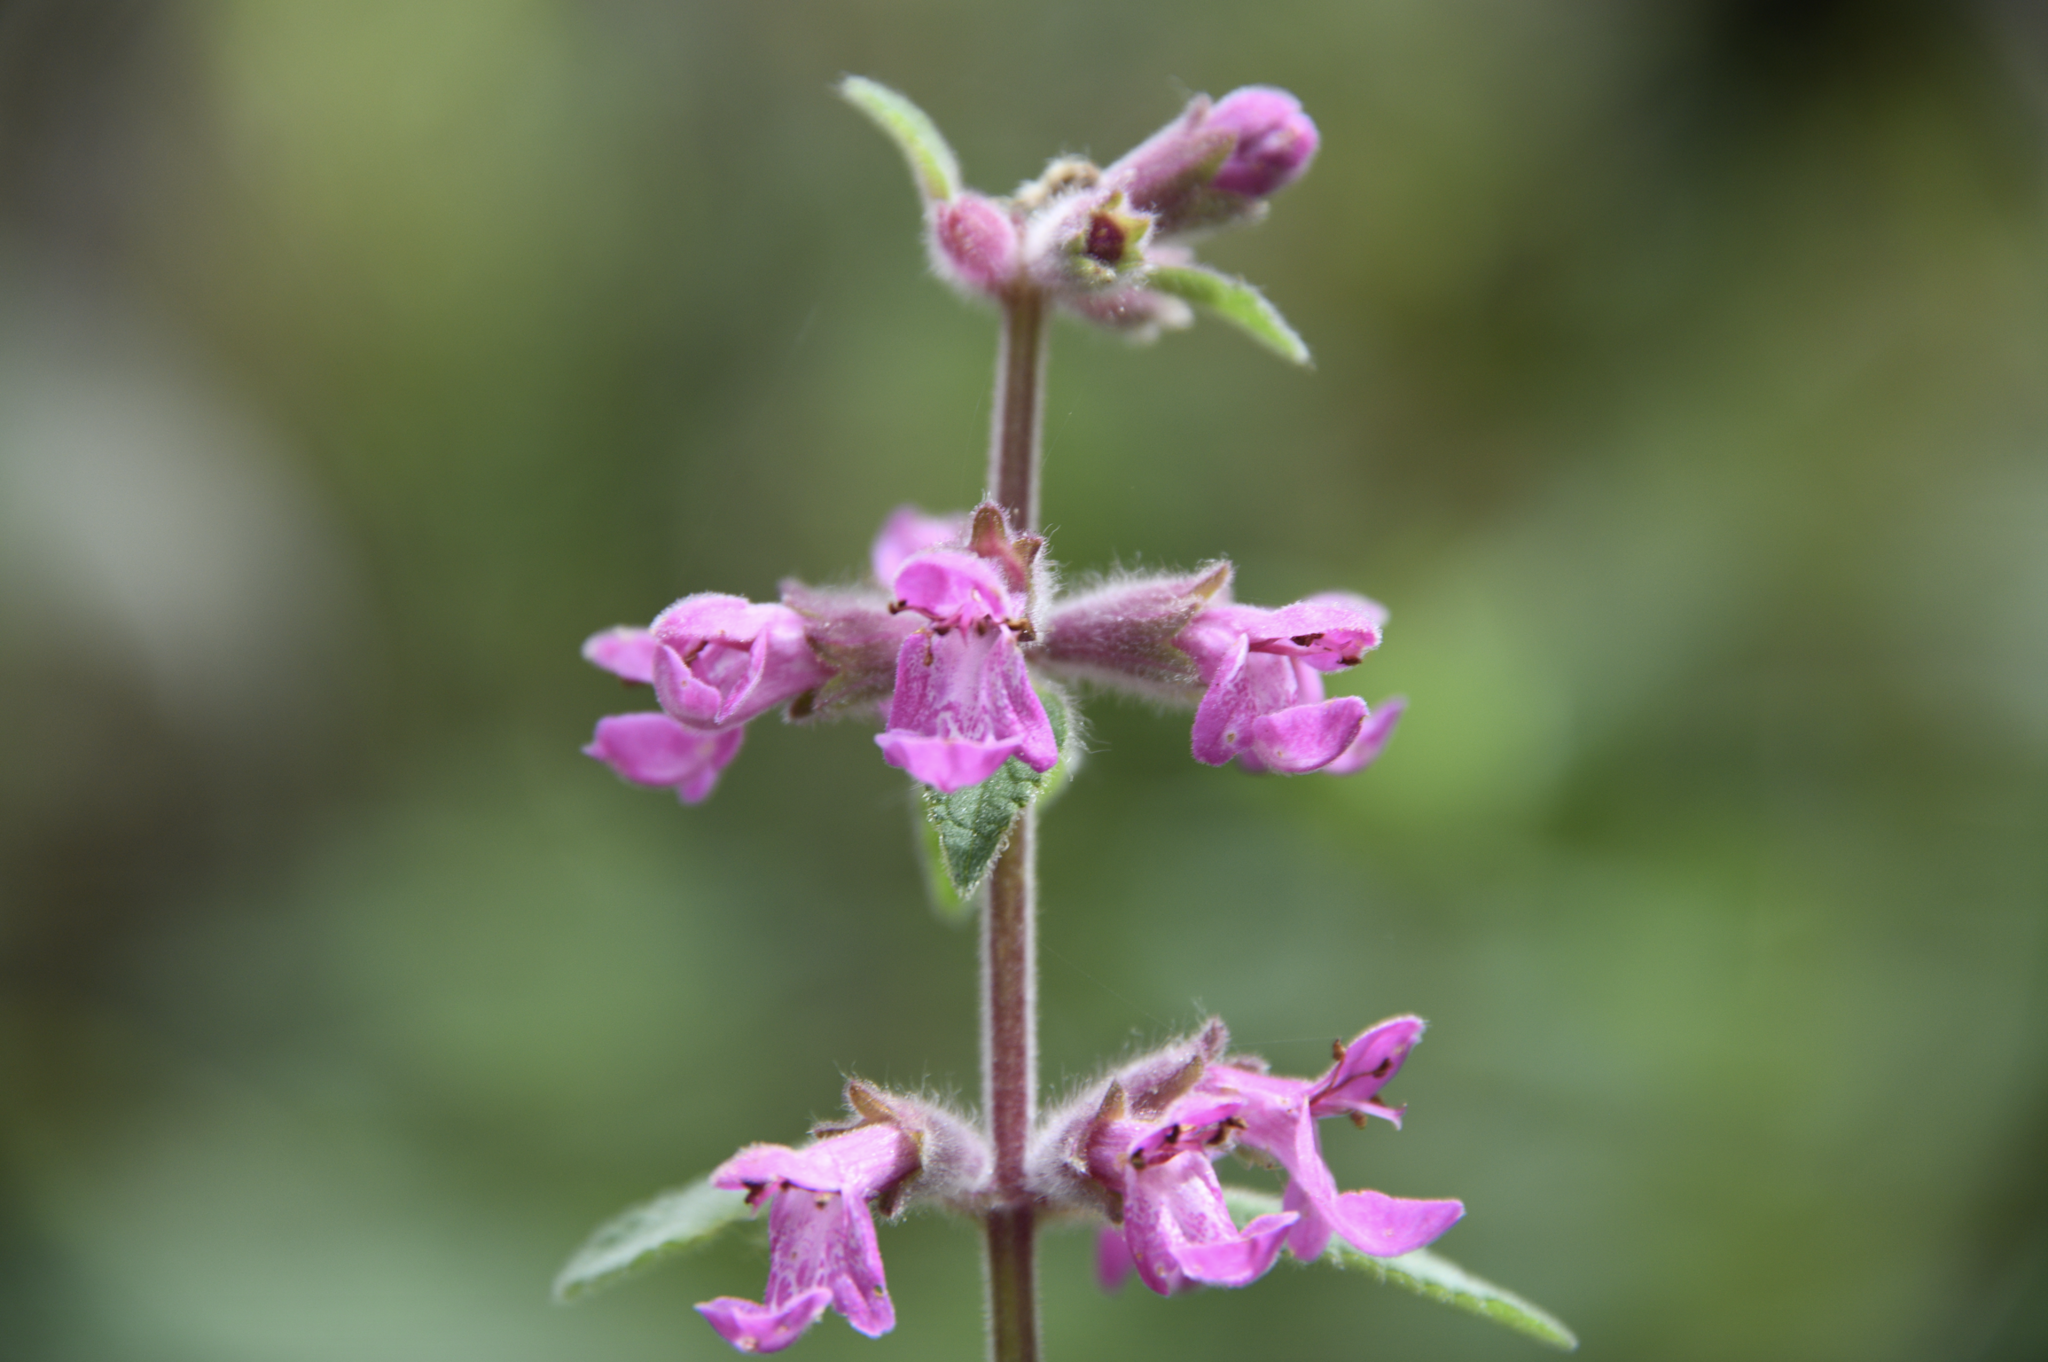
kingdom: Plantae
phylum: Tracheophyta
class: Magnoliopsida
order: Lamiales
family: Lamiaceae
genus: Stachys
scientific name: Stachys bullata
